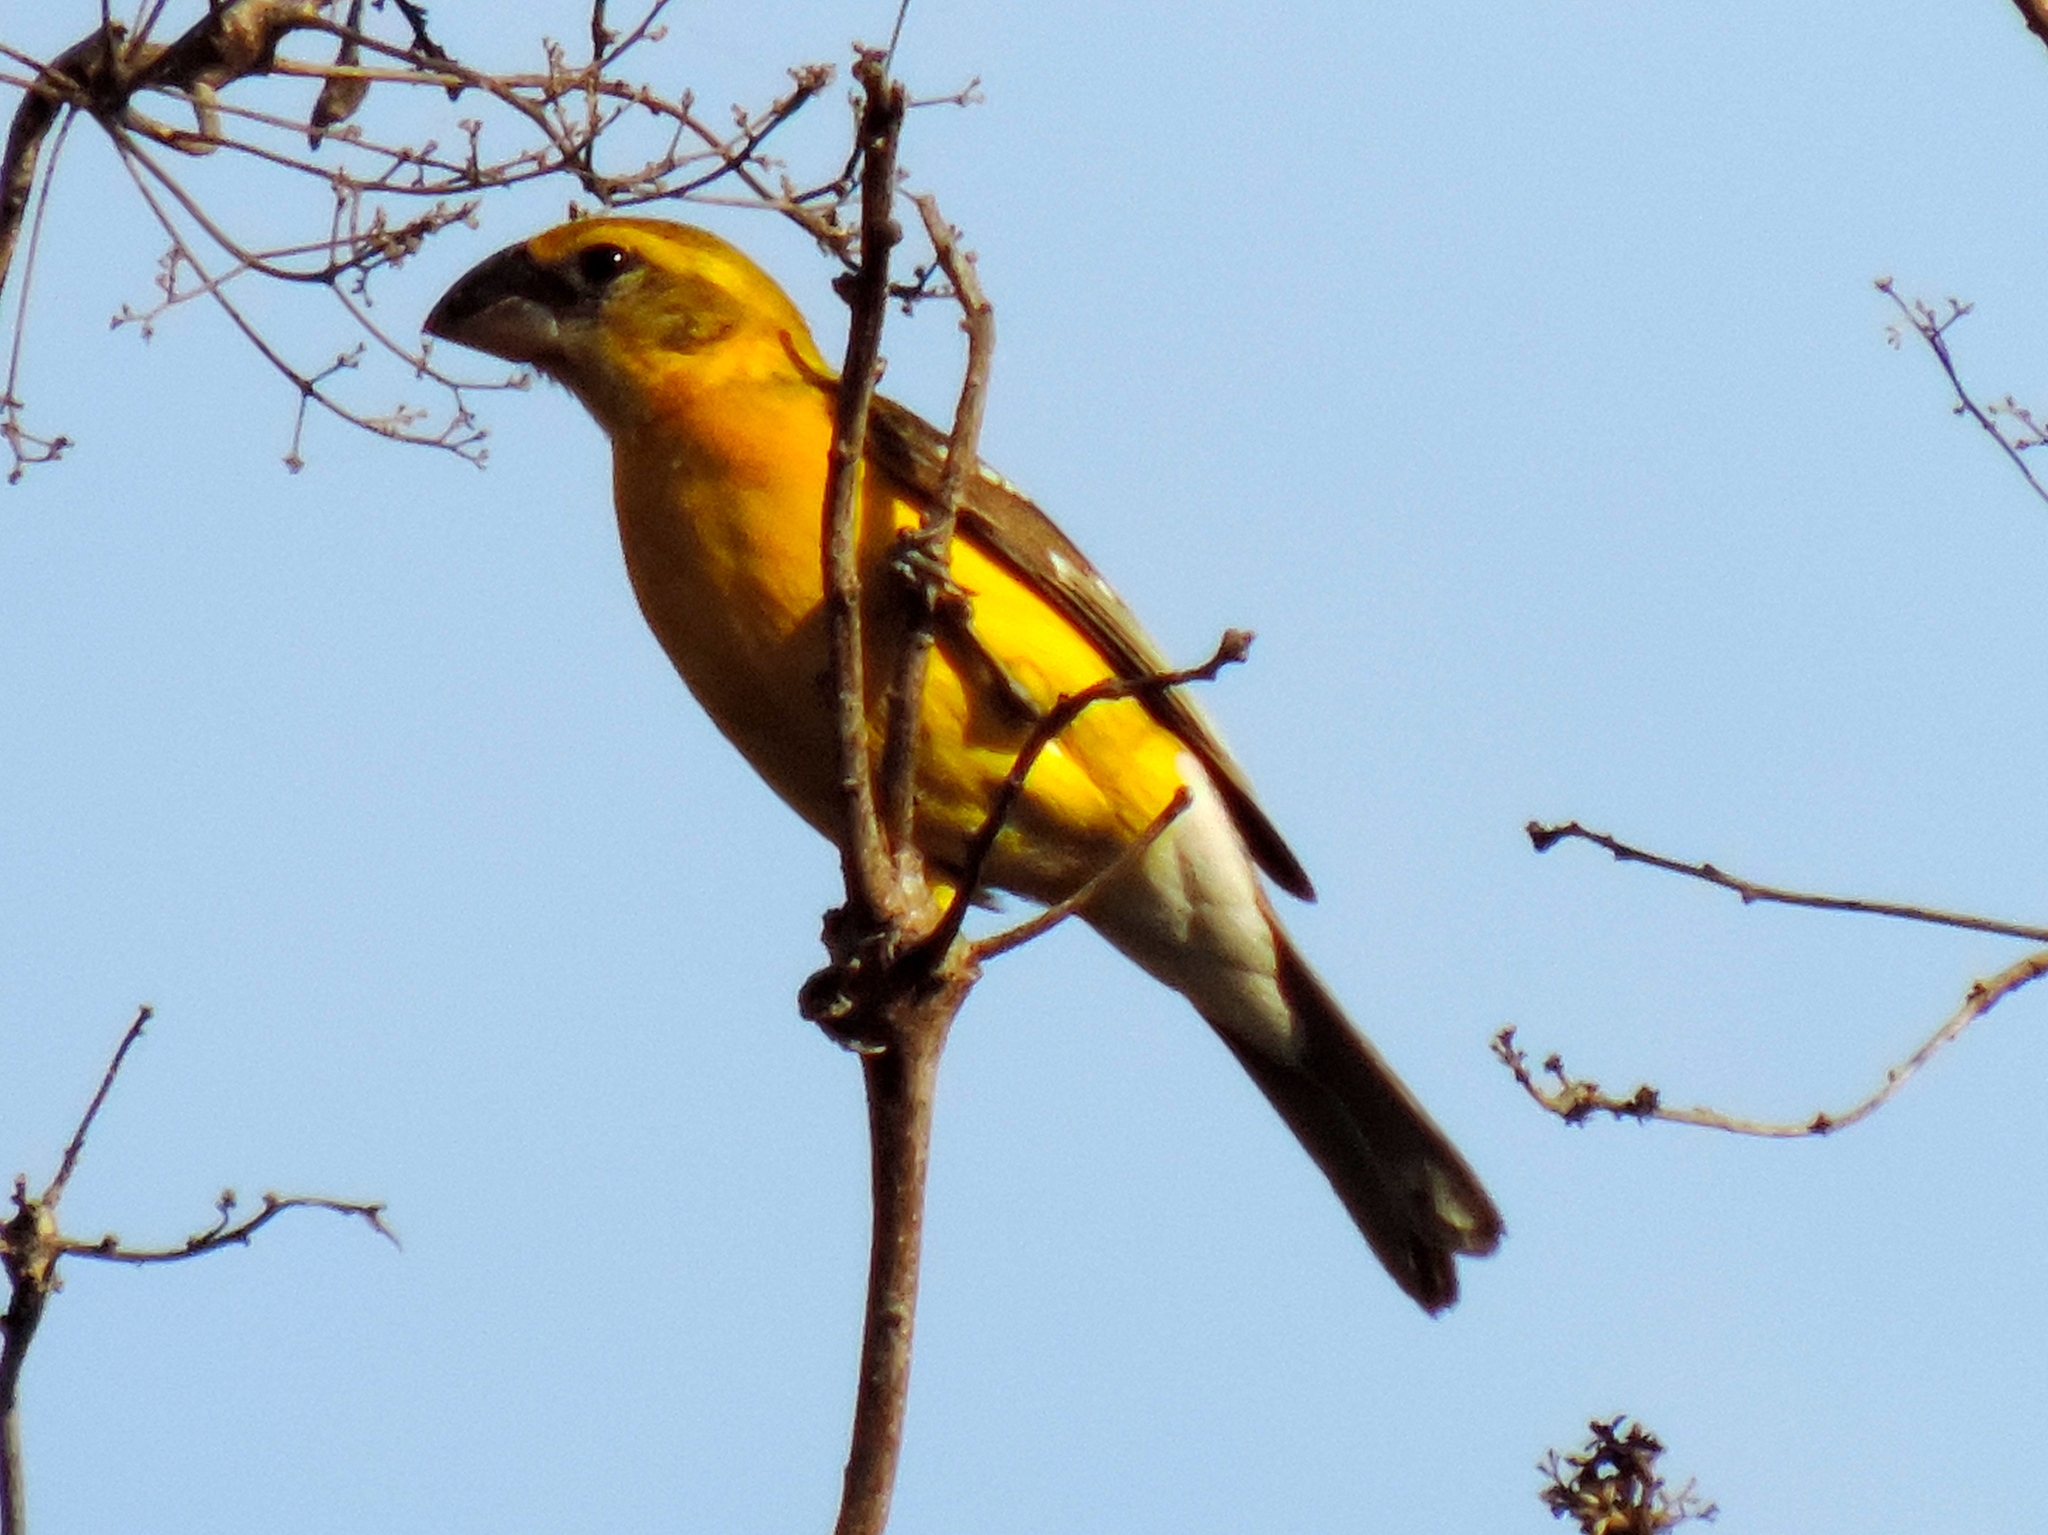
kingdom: Animalia
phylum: Chordata
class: Aves
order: Passeriformes
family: Cardinalidae
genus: Pheucticus
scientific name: Pheucticus chrysopeplus
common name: Yellow grosbeak
